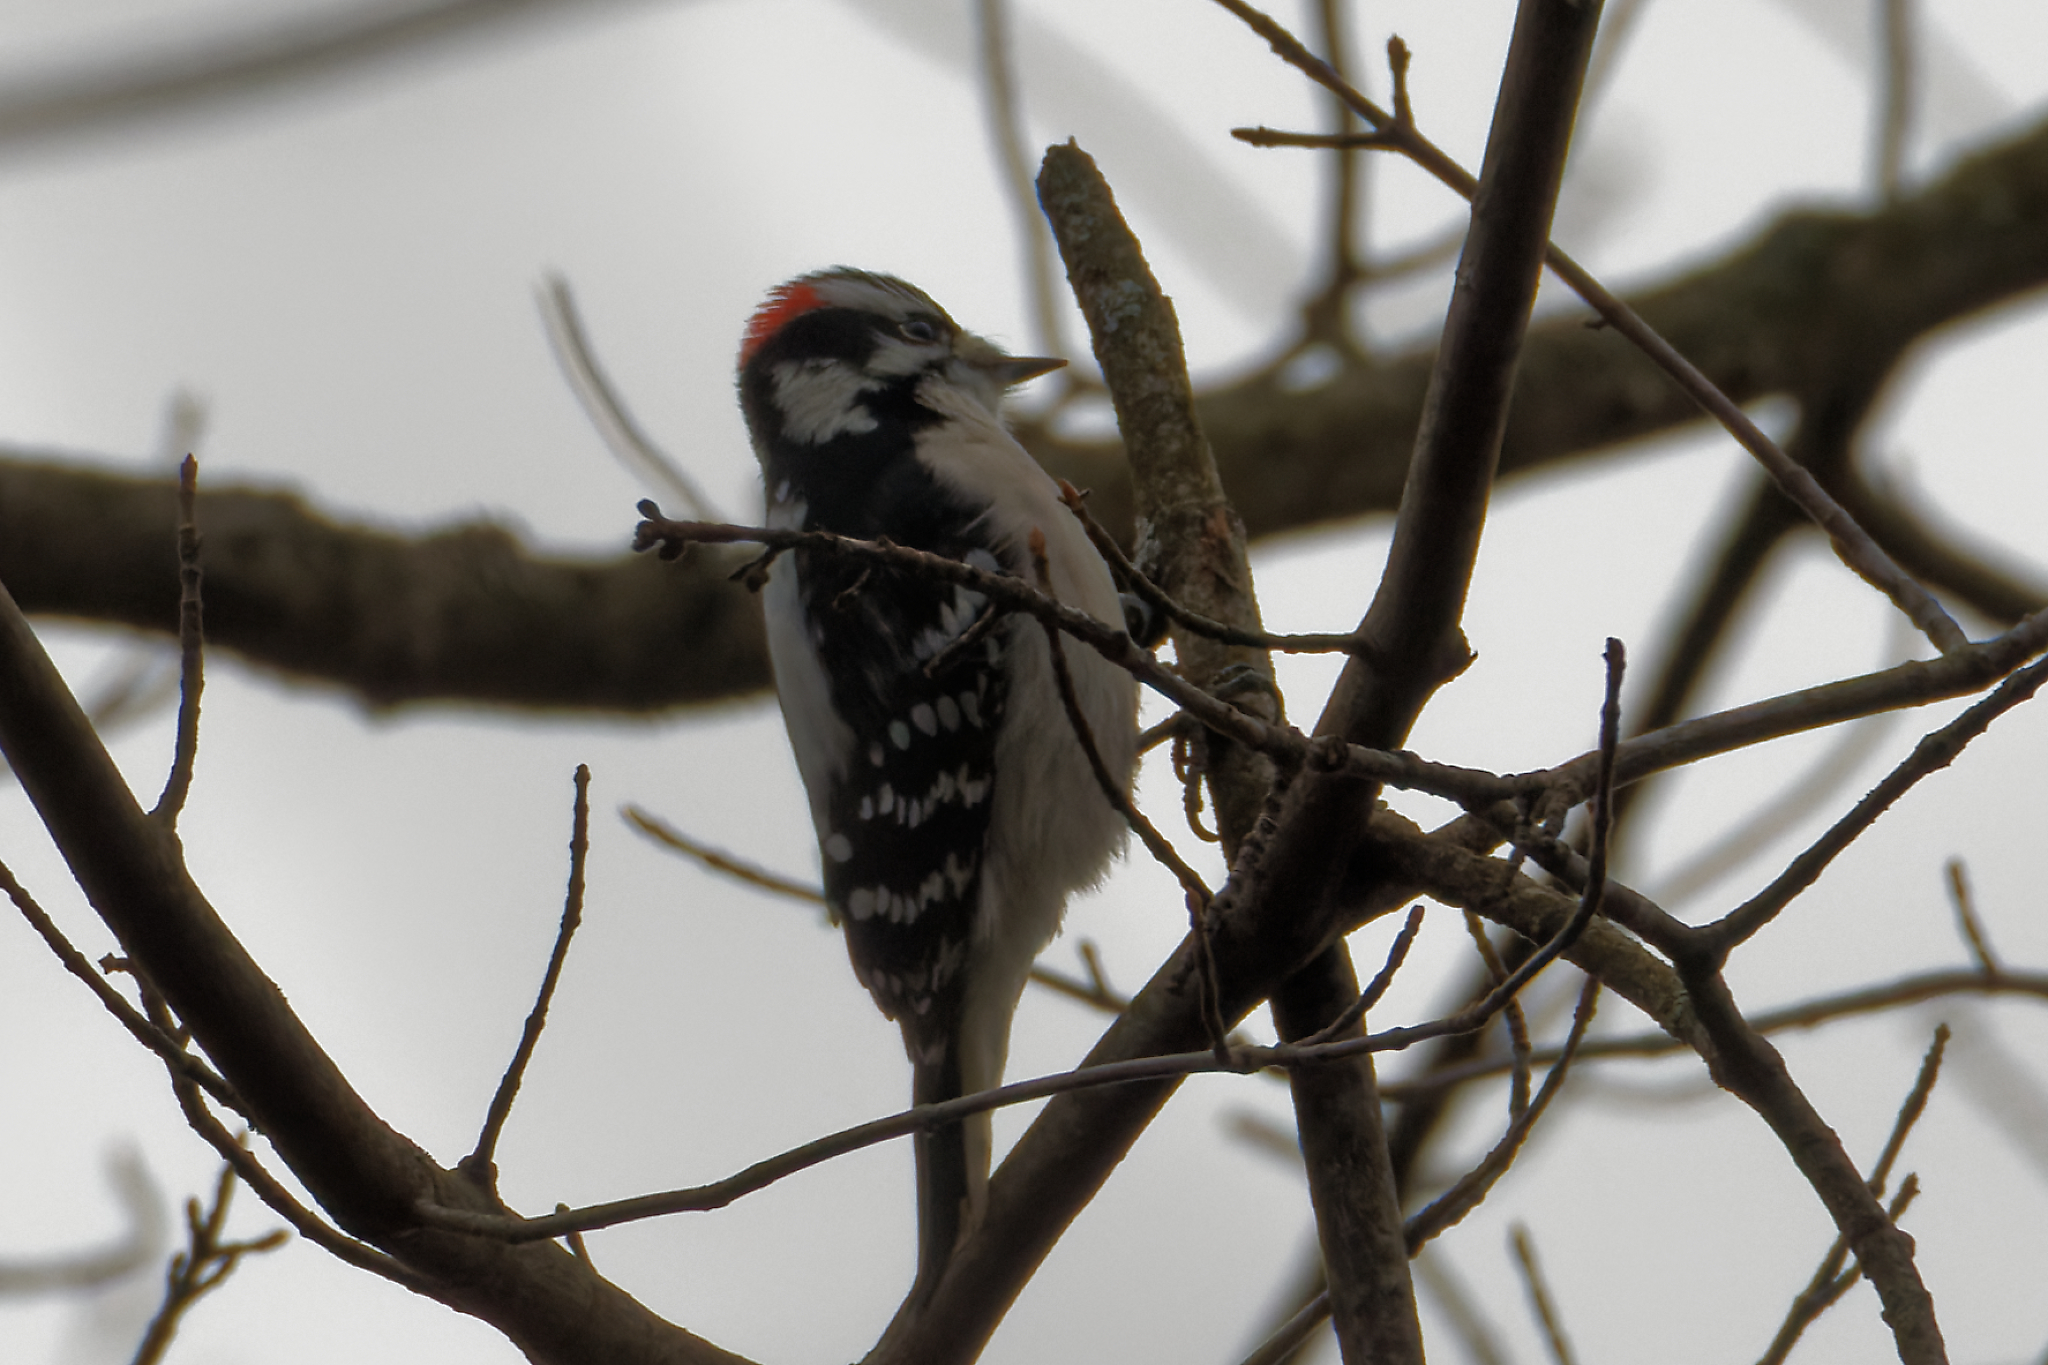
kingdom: Animalia
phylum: Chordata
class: Aves
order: Piciformes
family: Picidae
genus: Dryobates
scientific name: Dryobates pubescens
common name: Downy woodpecker
